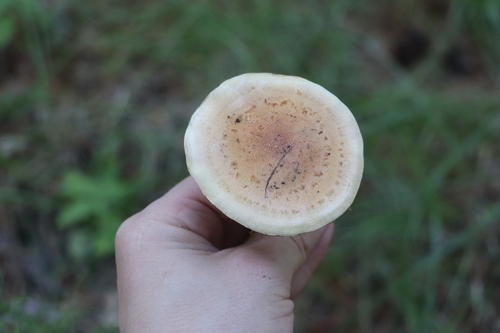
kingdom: Fungi
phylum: Basidiomycota
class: Agaricomycetes
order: Agaricales
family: Strophariaceae
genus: Pholiota
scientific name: Pholiota mixta
